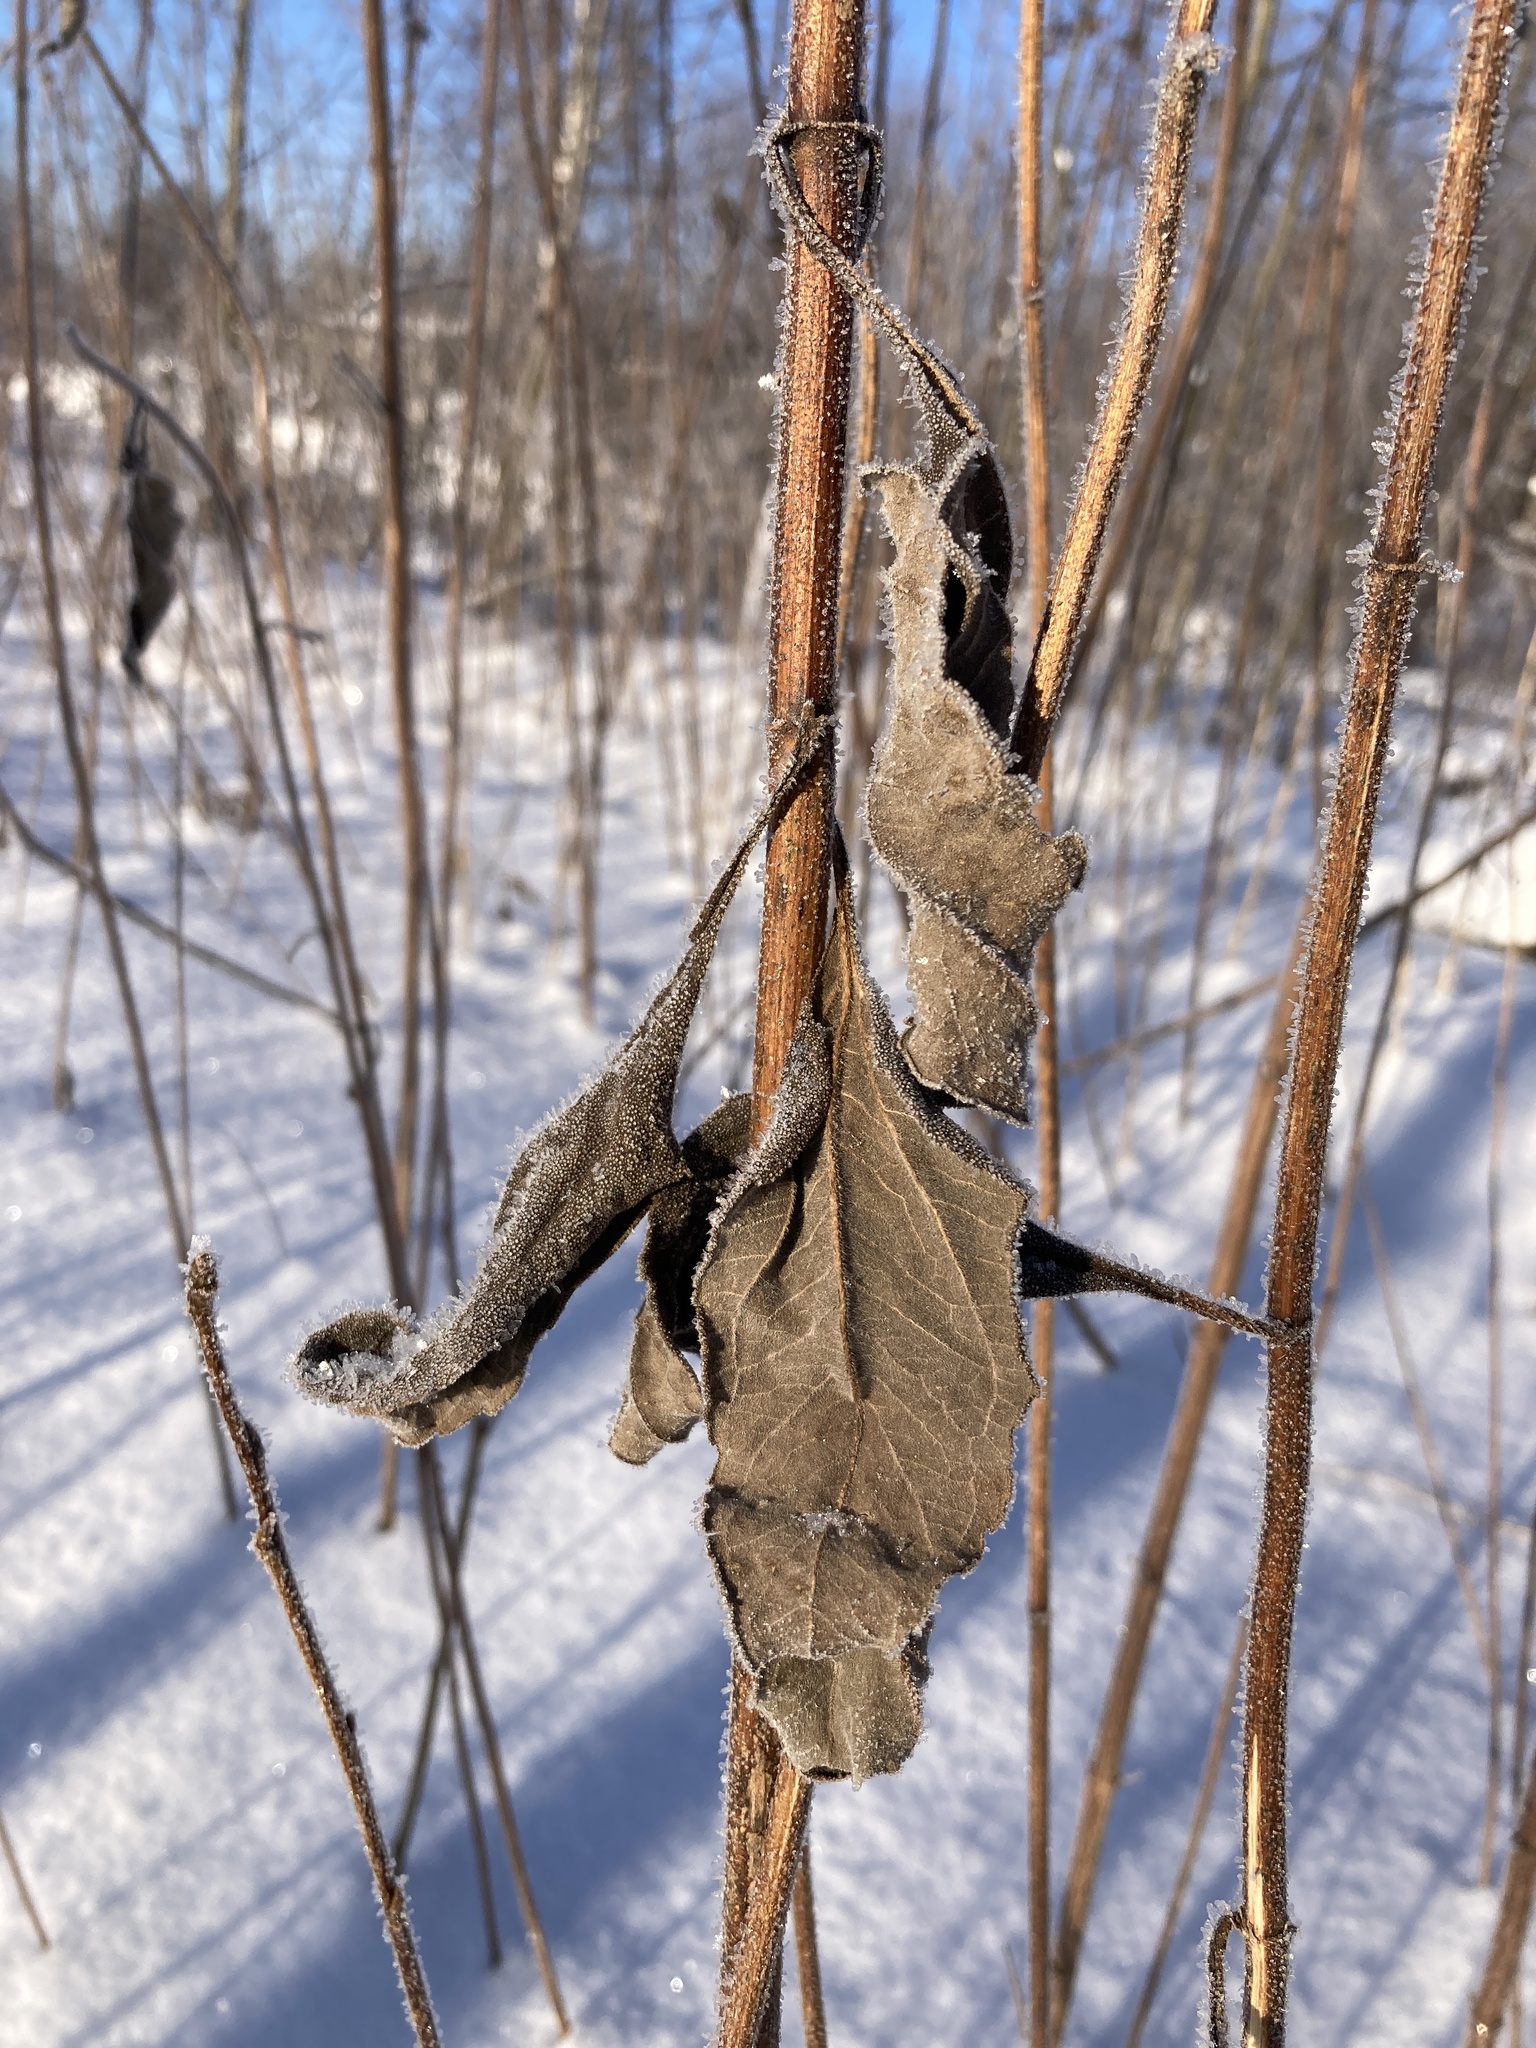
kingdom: Plantae
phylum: Tracheophyta
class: Magnoliopsida
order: Asterales
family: Asteraceae
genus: Helianthus
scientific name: Helianthus tuberosus
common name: Jerusalem artichoke
